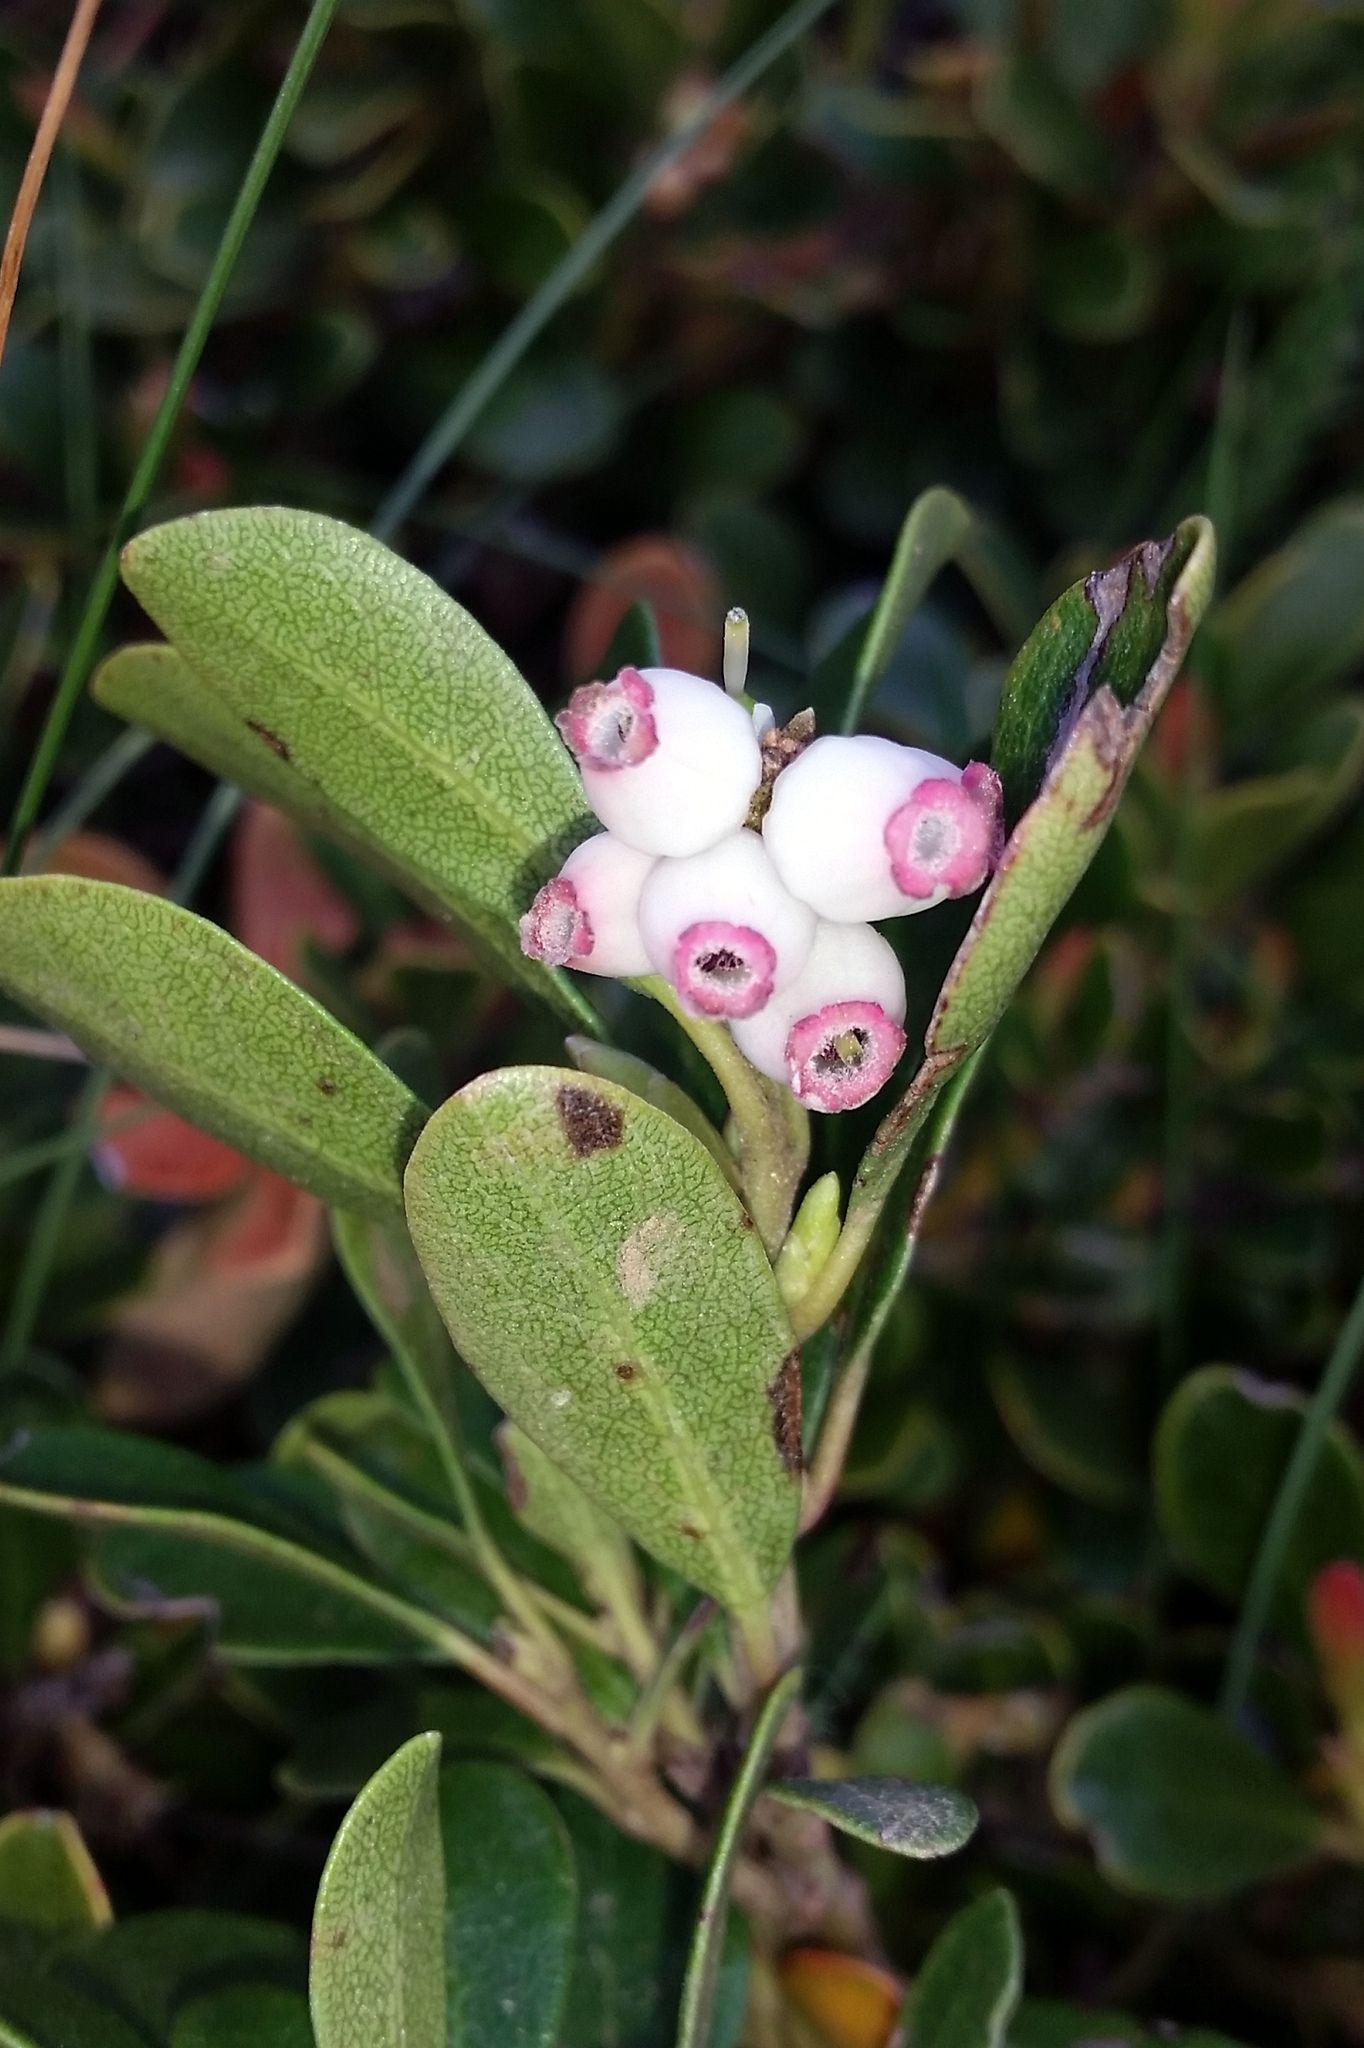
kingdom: Plantae
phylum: Tracheophyta
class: Magnoliopsida
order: Ericales
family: Ericaceae
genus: Arctostaphylos
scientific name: Arctostaphylos uva-ursi
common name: Bearberry
